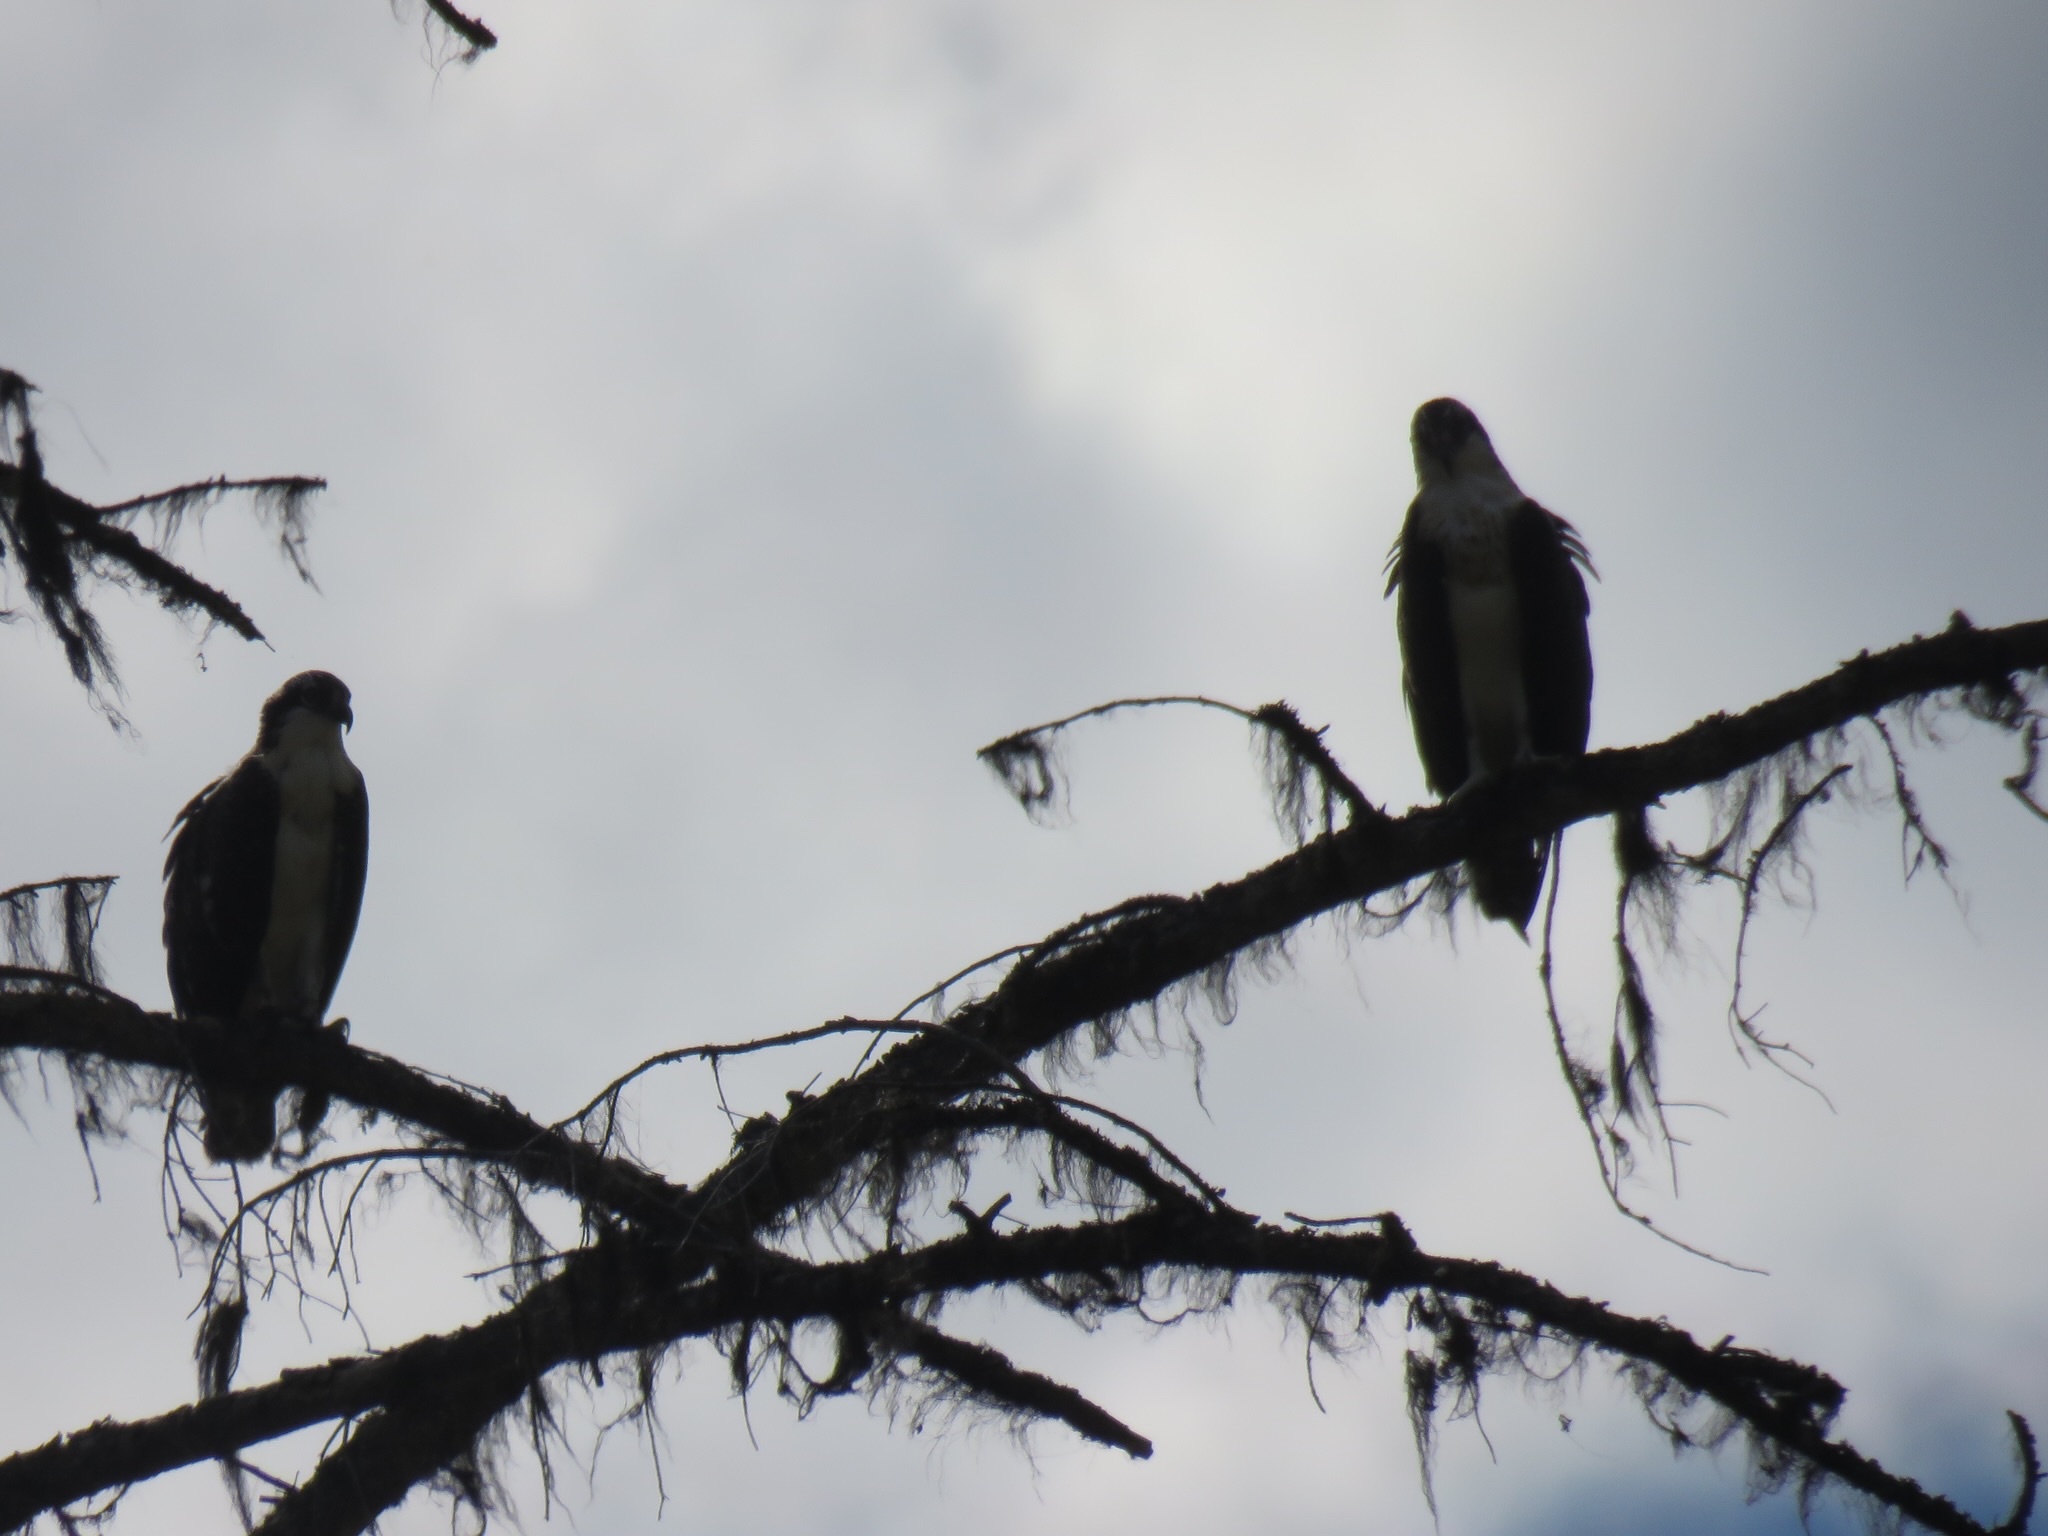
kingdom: Animalia
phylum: Chordata
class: Aves
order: Accipitriformes
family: Pandionidae
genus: Pandion
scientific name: Pandion haliaetus
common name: Osprey
